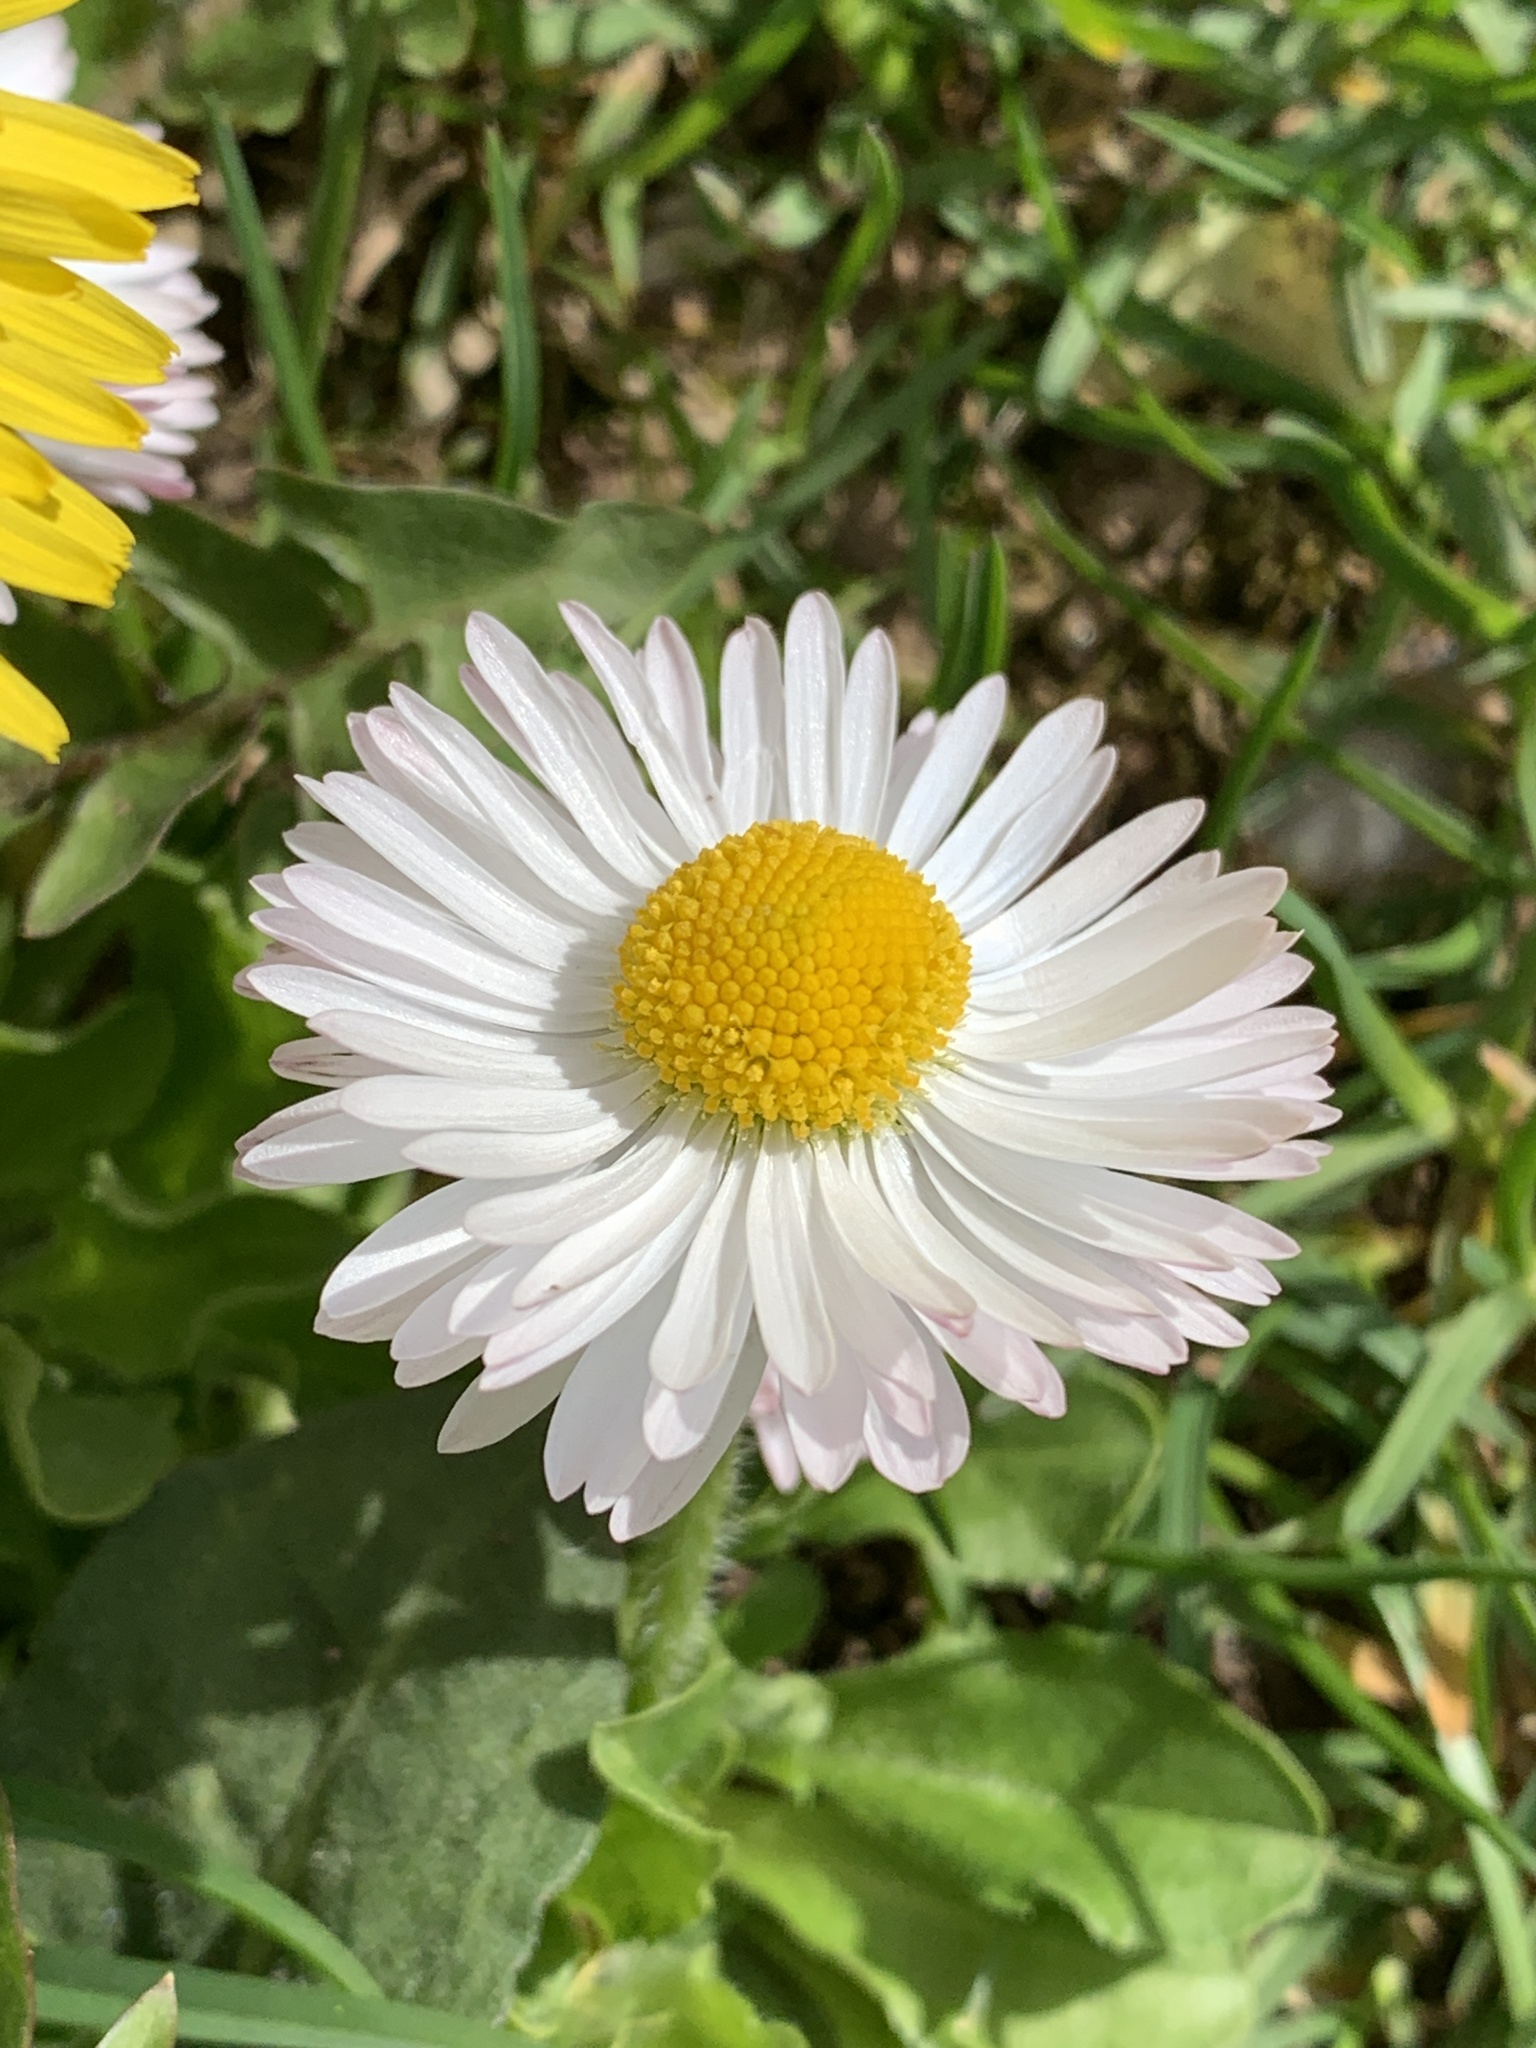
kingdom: Plantae
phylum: Tracheophyta
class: Magnoliopsida
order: Asterales
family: Asteraceae
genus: Bellis
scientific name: Bellis perennis
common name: Lawndaisy
